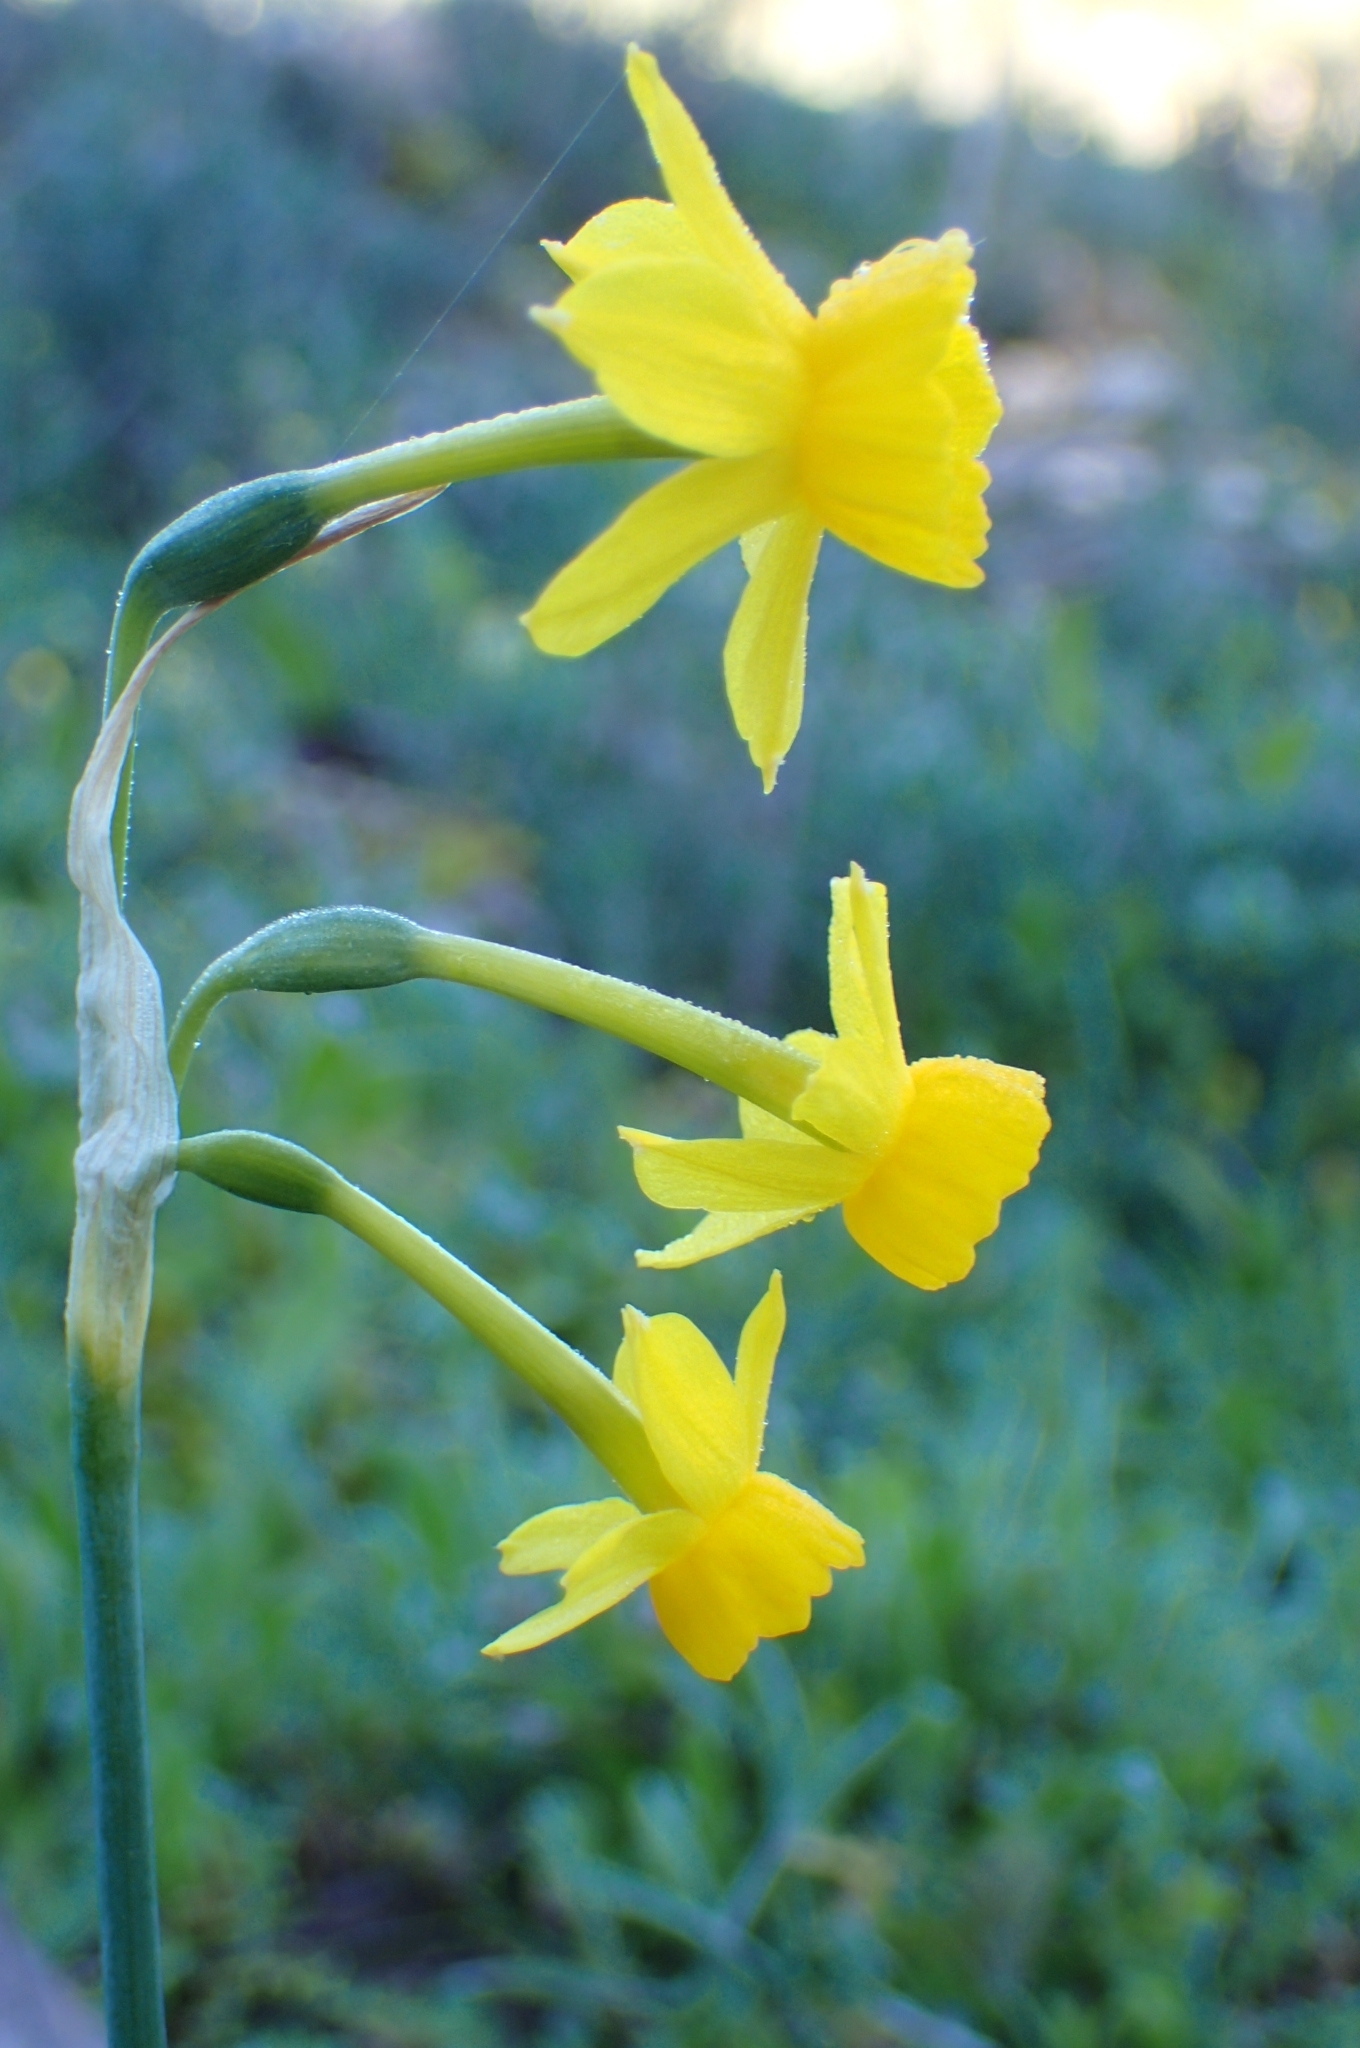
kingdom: Plantae
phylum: Tracheophyta
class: Liliopsida
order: Asparagales
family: Amaryllidaceae
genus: Narcissus
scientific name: Narcissus flavus
